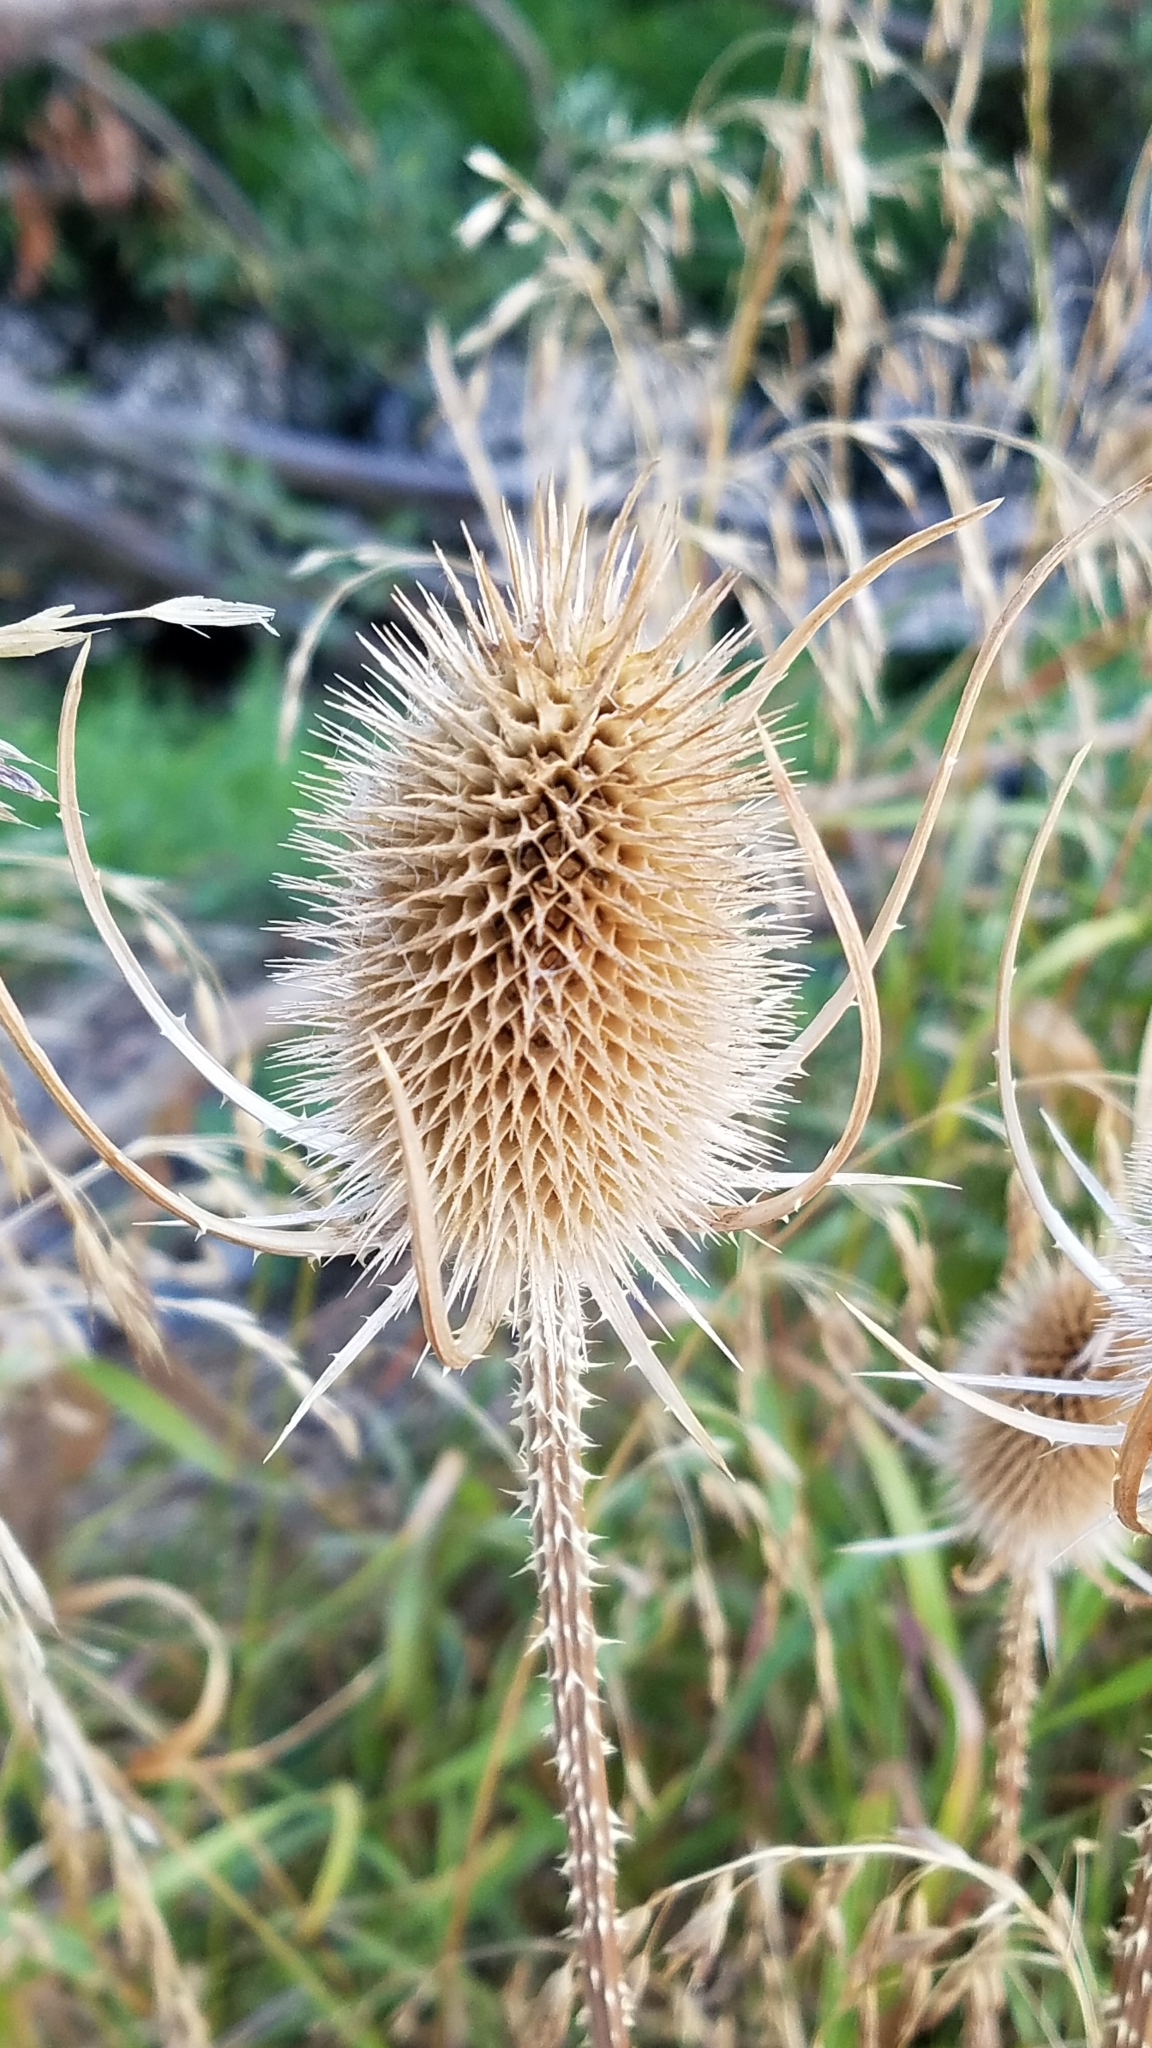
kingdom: Plantae
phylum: Tracheophyta
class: Magnoliopsida
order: Dipsacales
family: Caprifoliaceae
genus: Dipsacus
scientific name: Dipsacus fullonum
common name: Teasel
